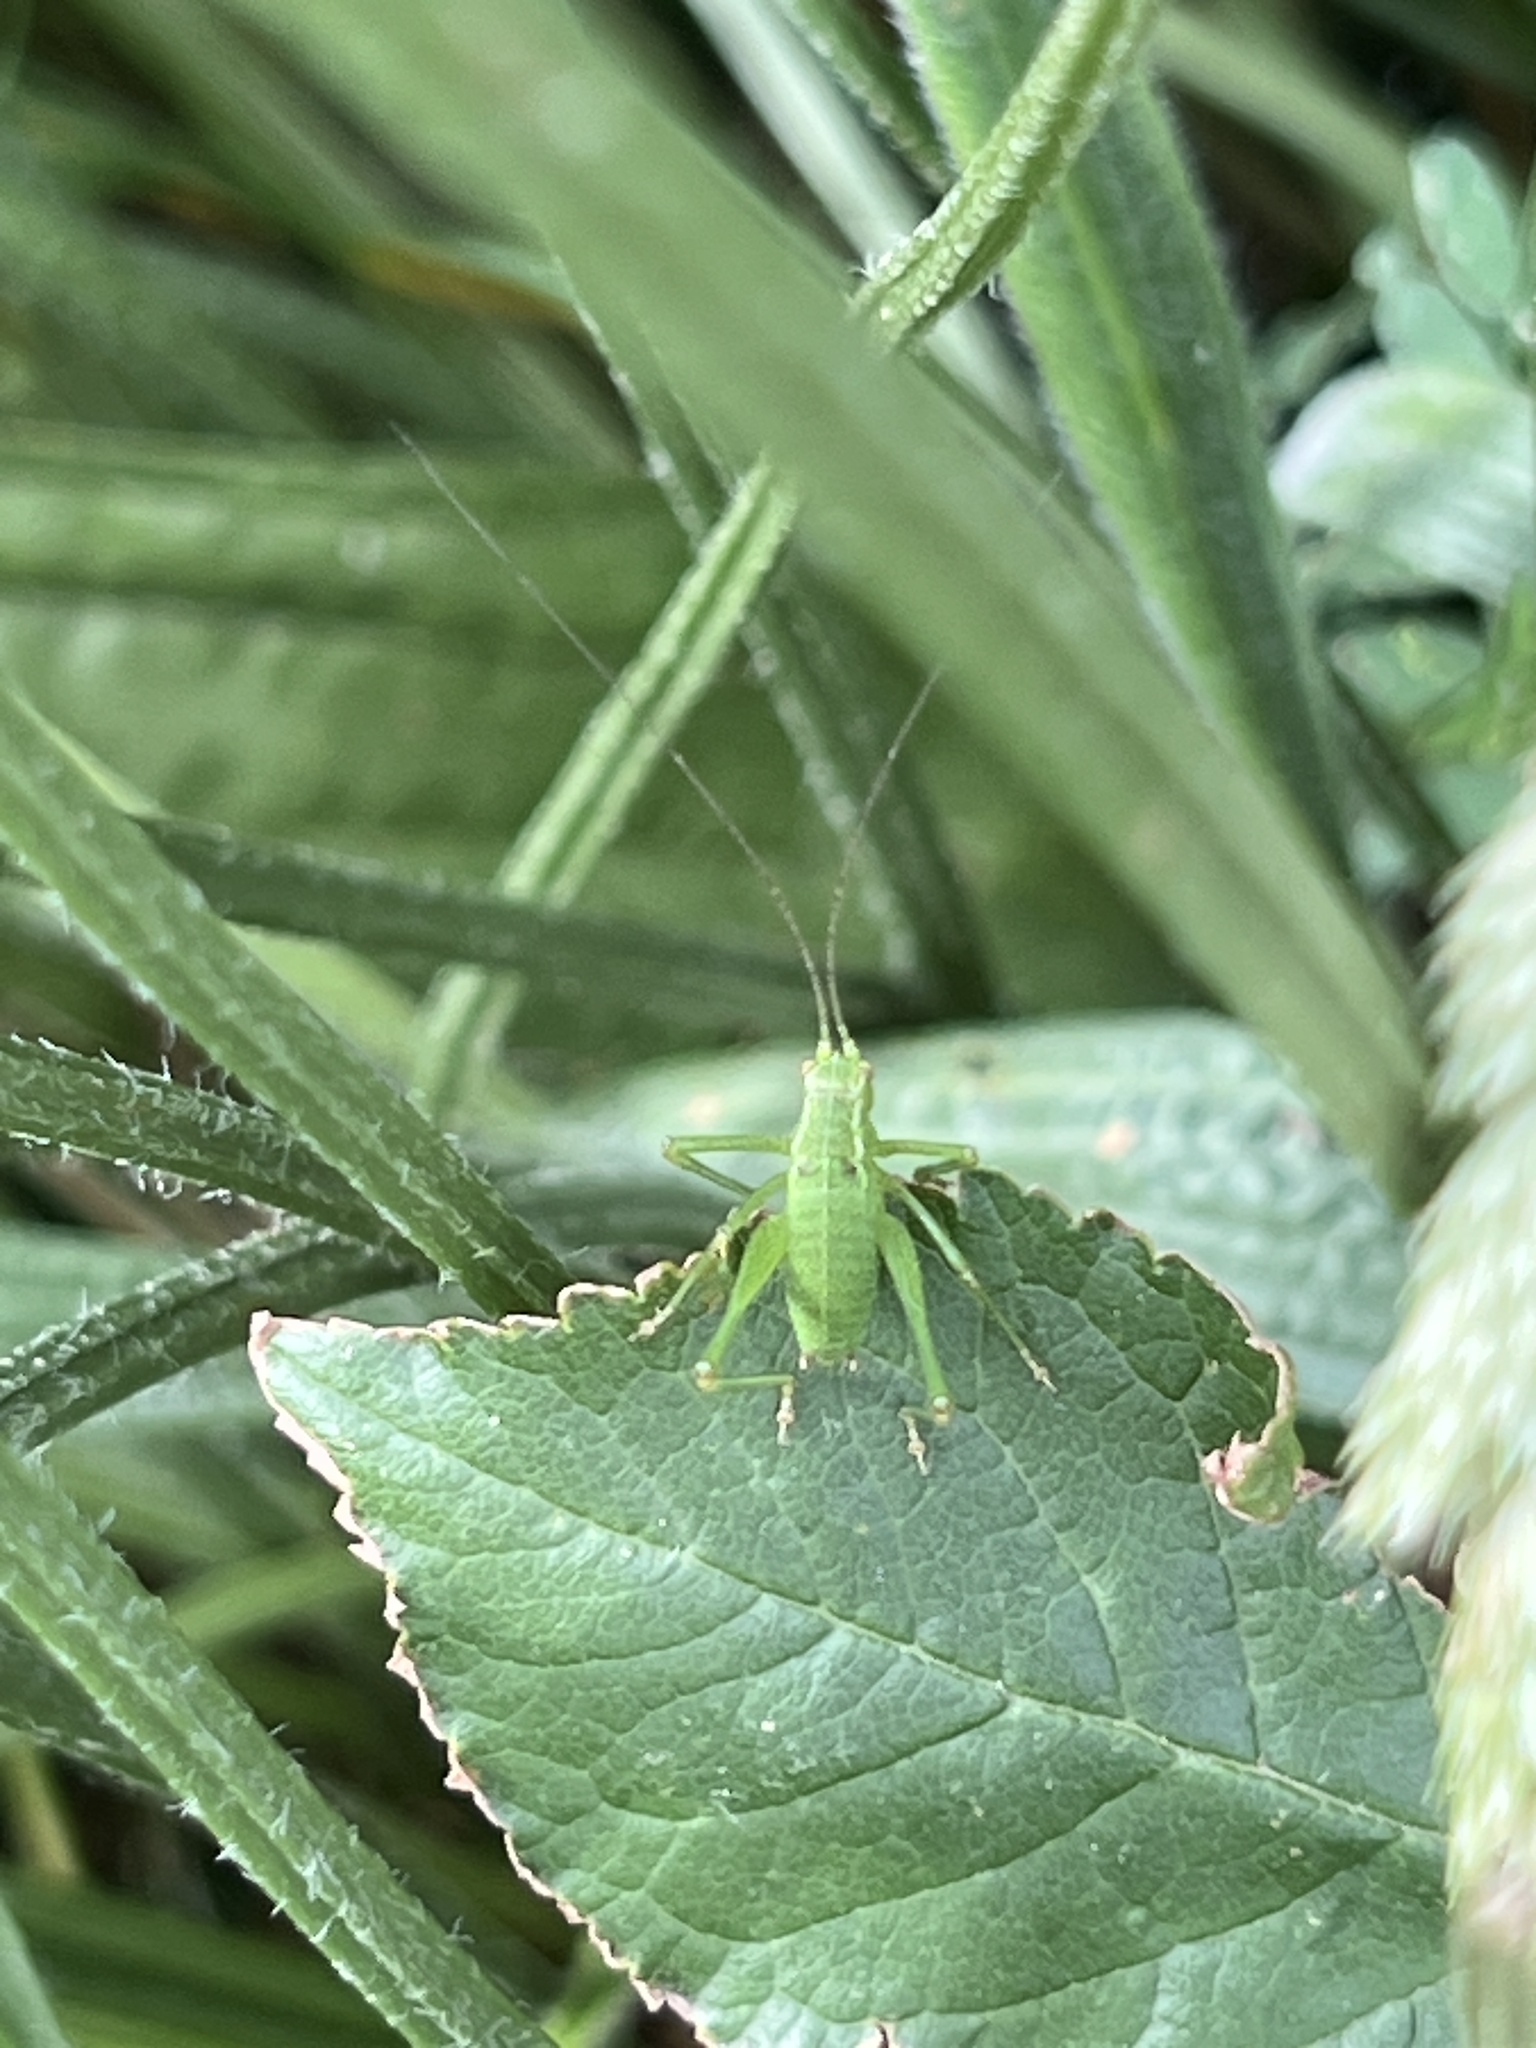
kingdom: Animalia
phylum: Arthropoda
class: Insecta
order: Orthoptera
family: Tettigoniidae
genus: Leptophyes
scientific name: Leptophyes punctatissima
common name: Speckled bush-cricket
